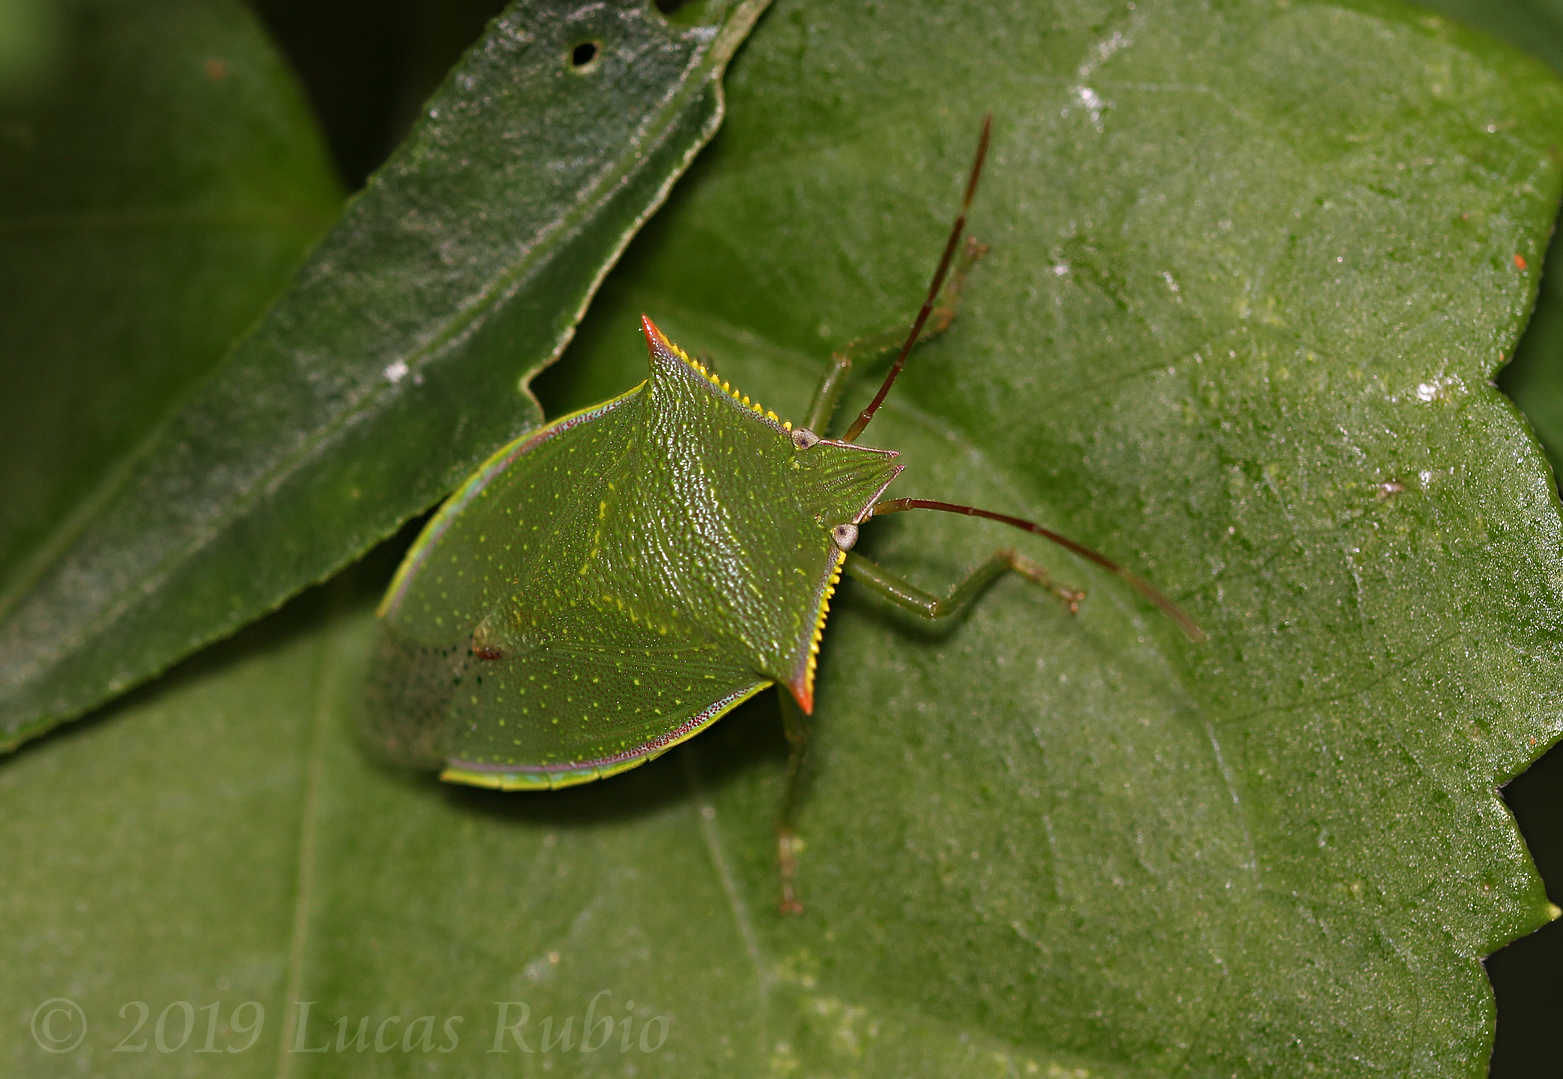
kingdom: Animalia
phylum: Arthropoda
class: Insecta
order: Hemiptera
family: Pentatomidae
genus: Loxa
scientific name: Loxa deducta
